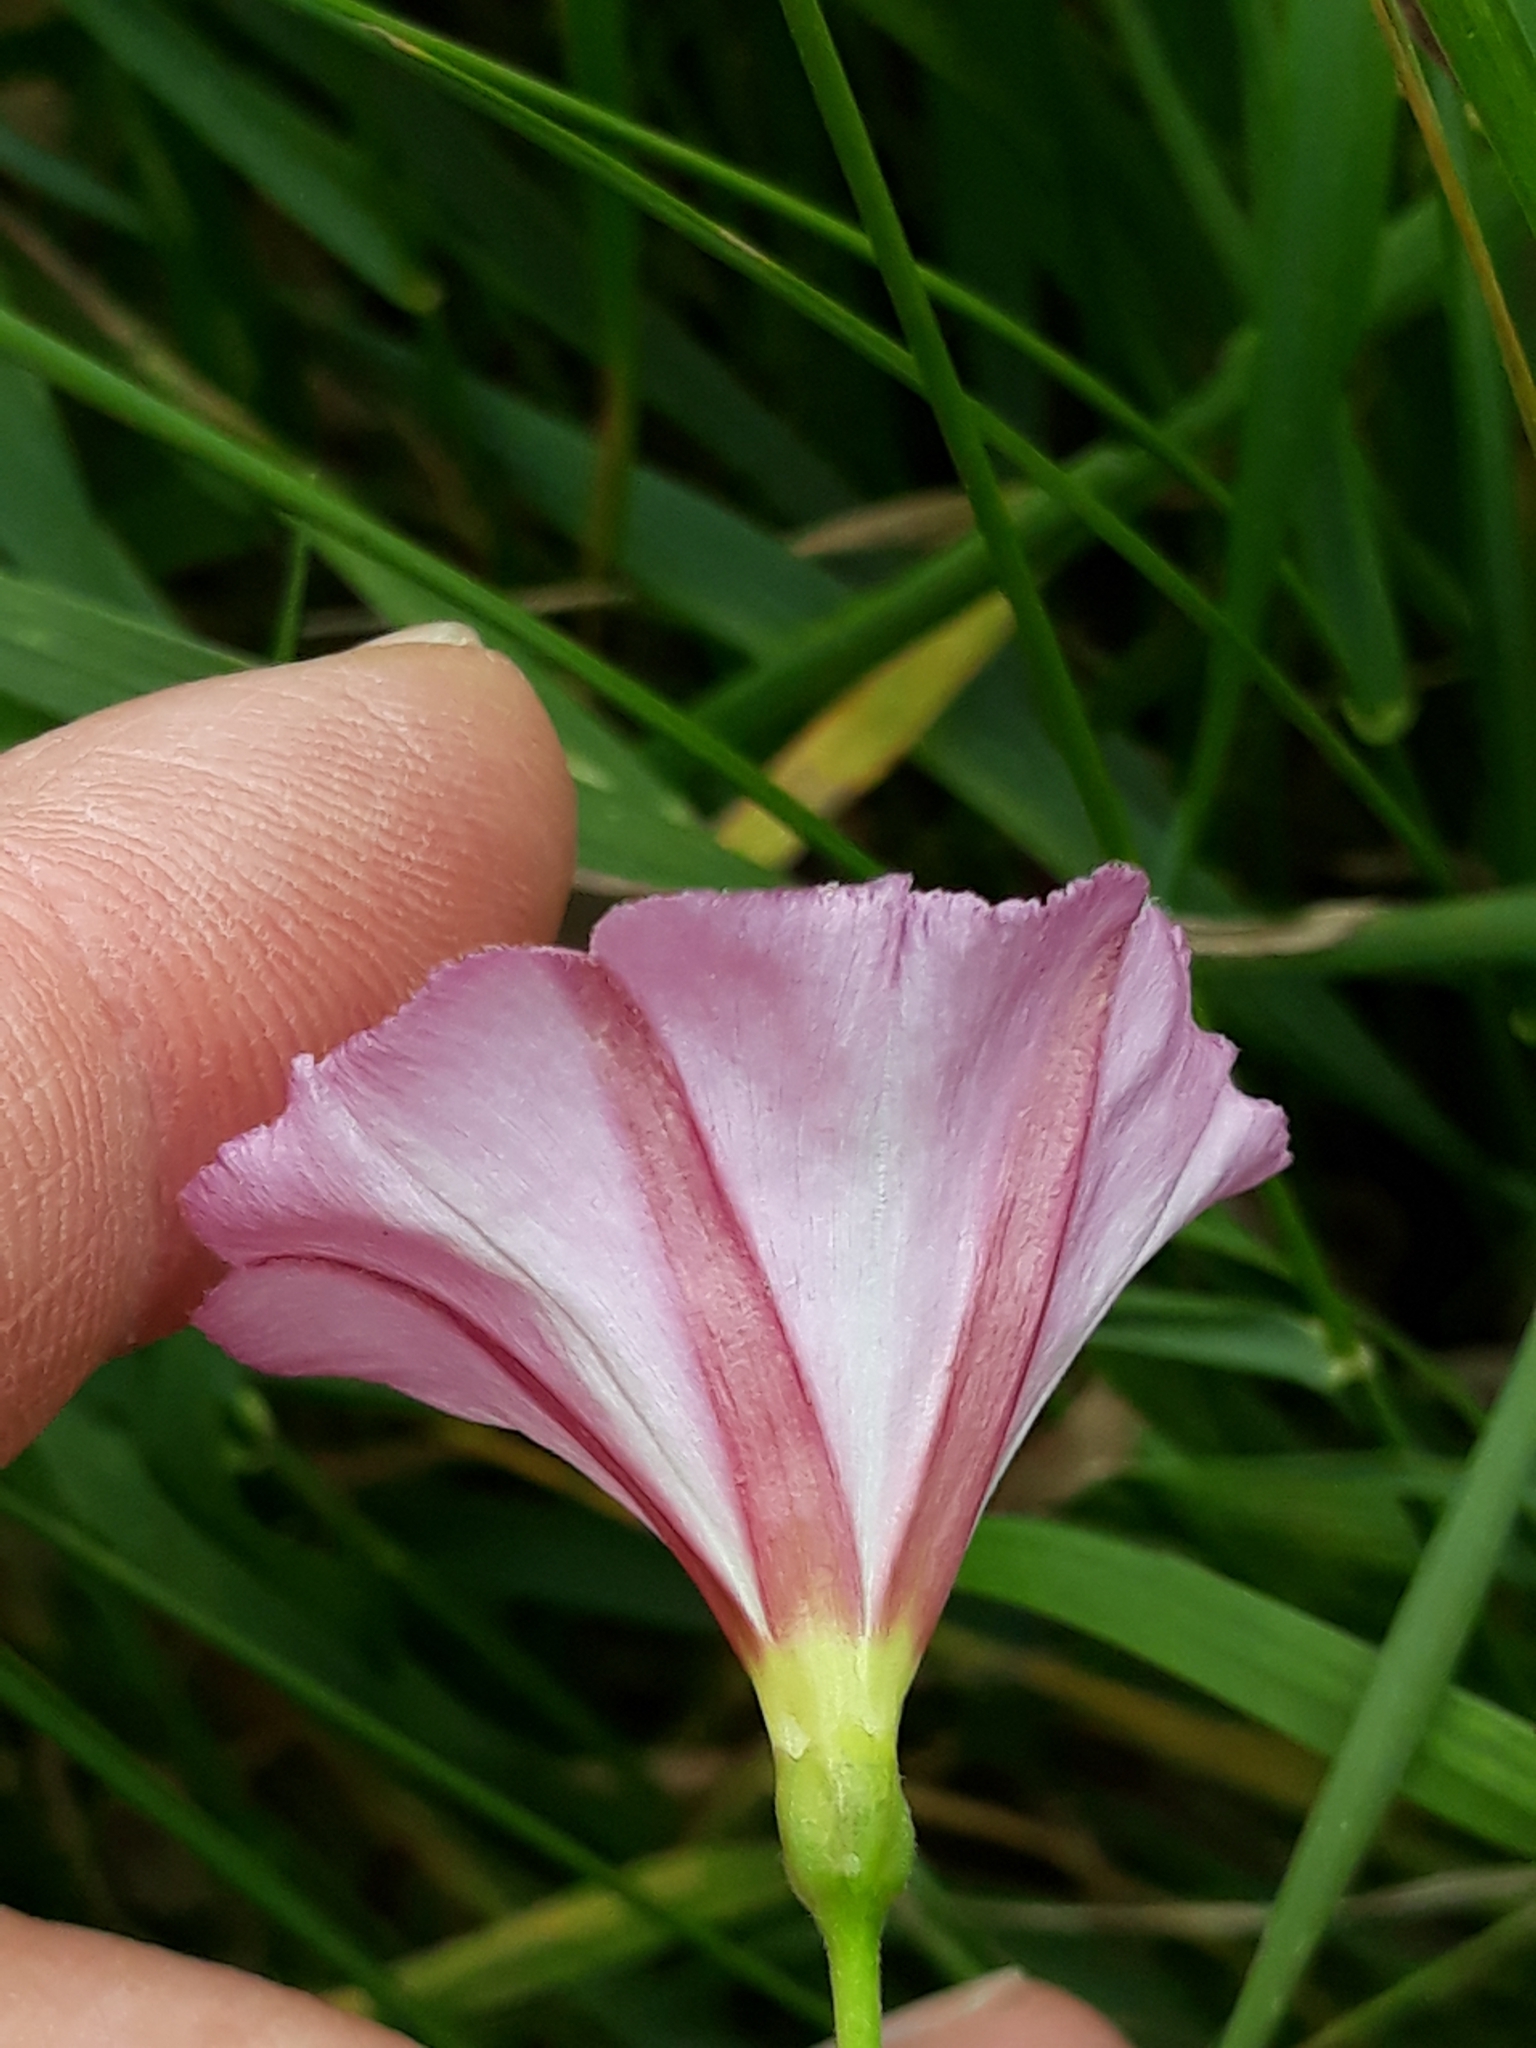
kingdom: Plantae
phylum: Tracheophyta
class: Magnoliopsida
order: Solanales
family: Convolvulaceae
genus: Convolvulus
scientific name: Convolvulus arvensis
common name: Field bindweed
